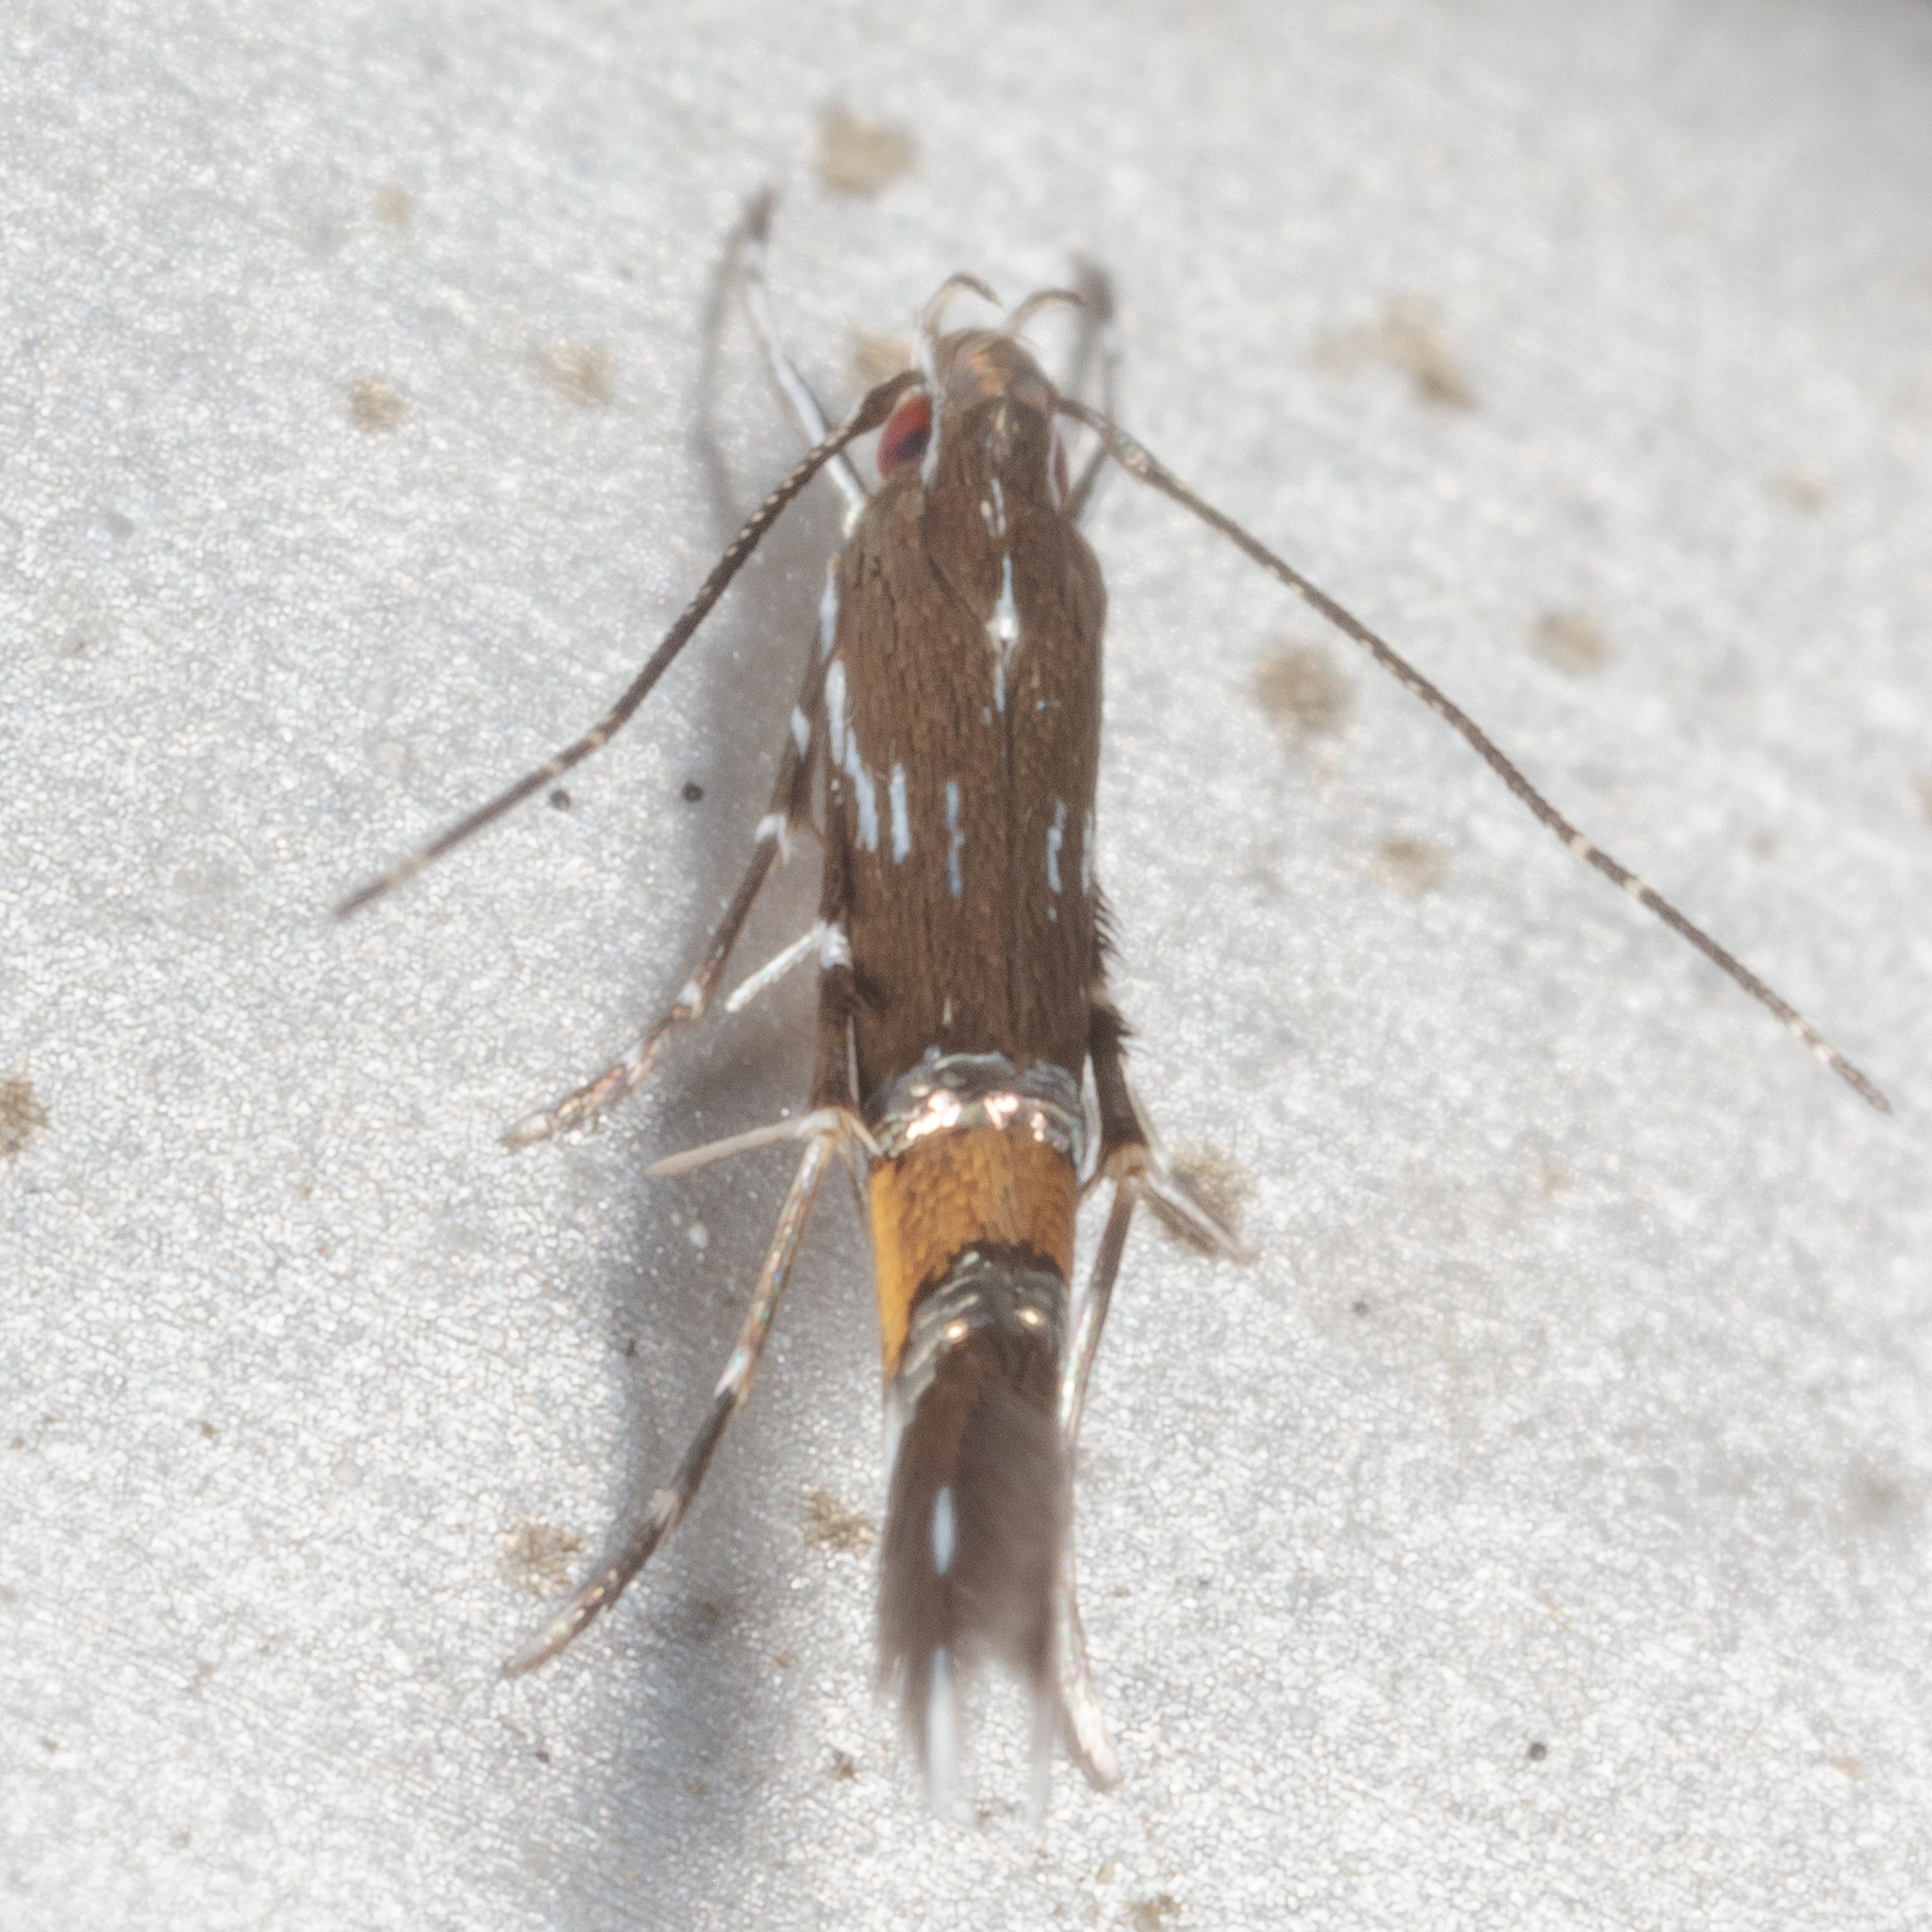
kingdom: Animalia
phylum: Arthropoda
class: Insecta
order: Lepidoptera
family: Cosmopterigidae
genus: Cosmopterix
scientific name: Cosmopterix pulchrimella
